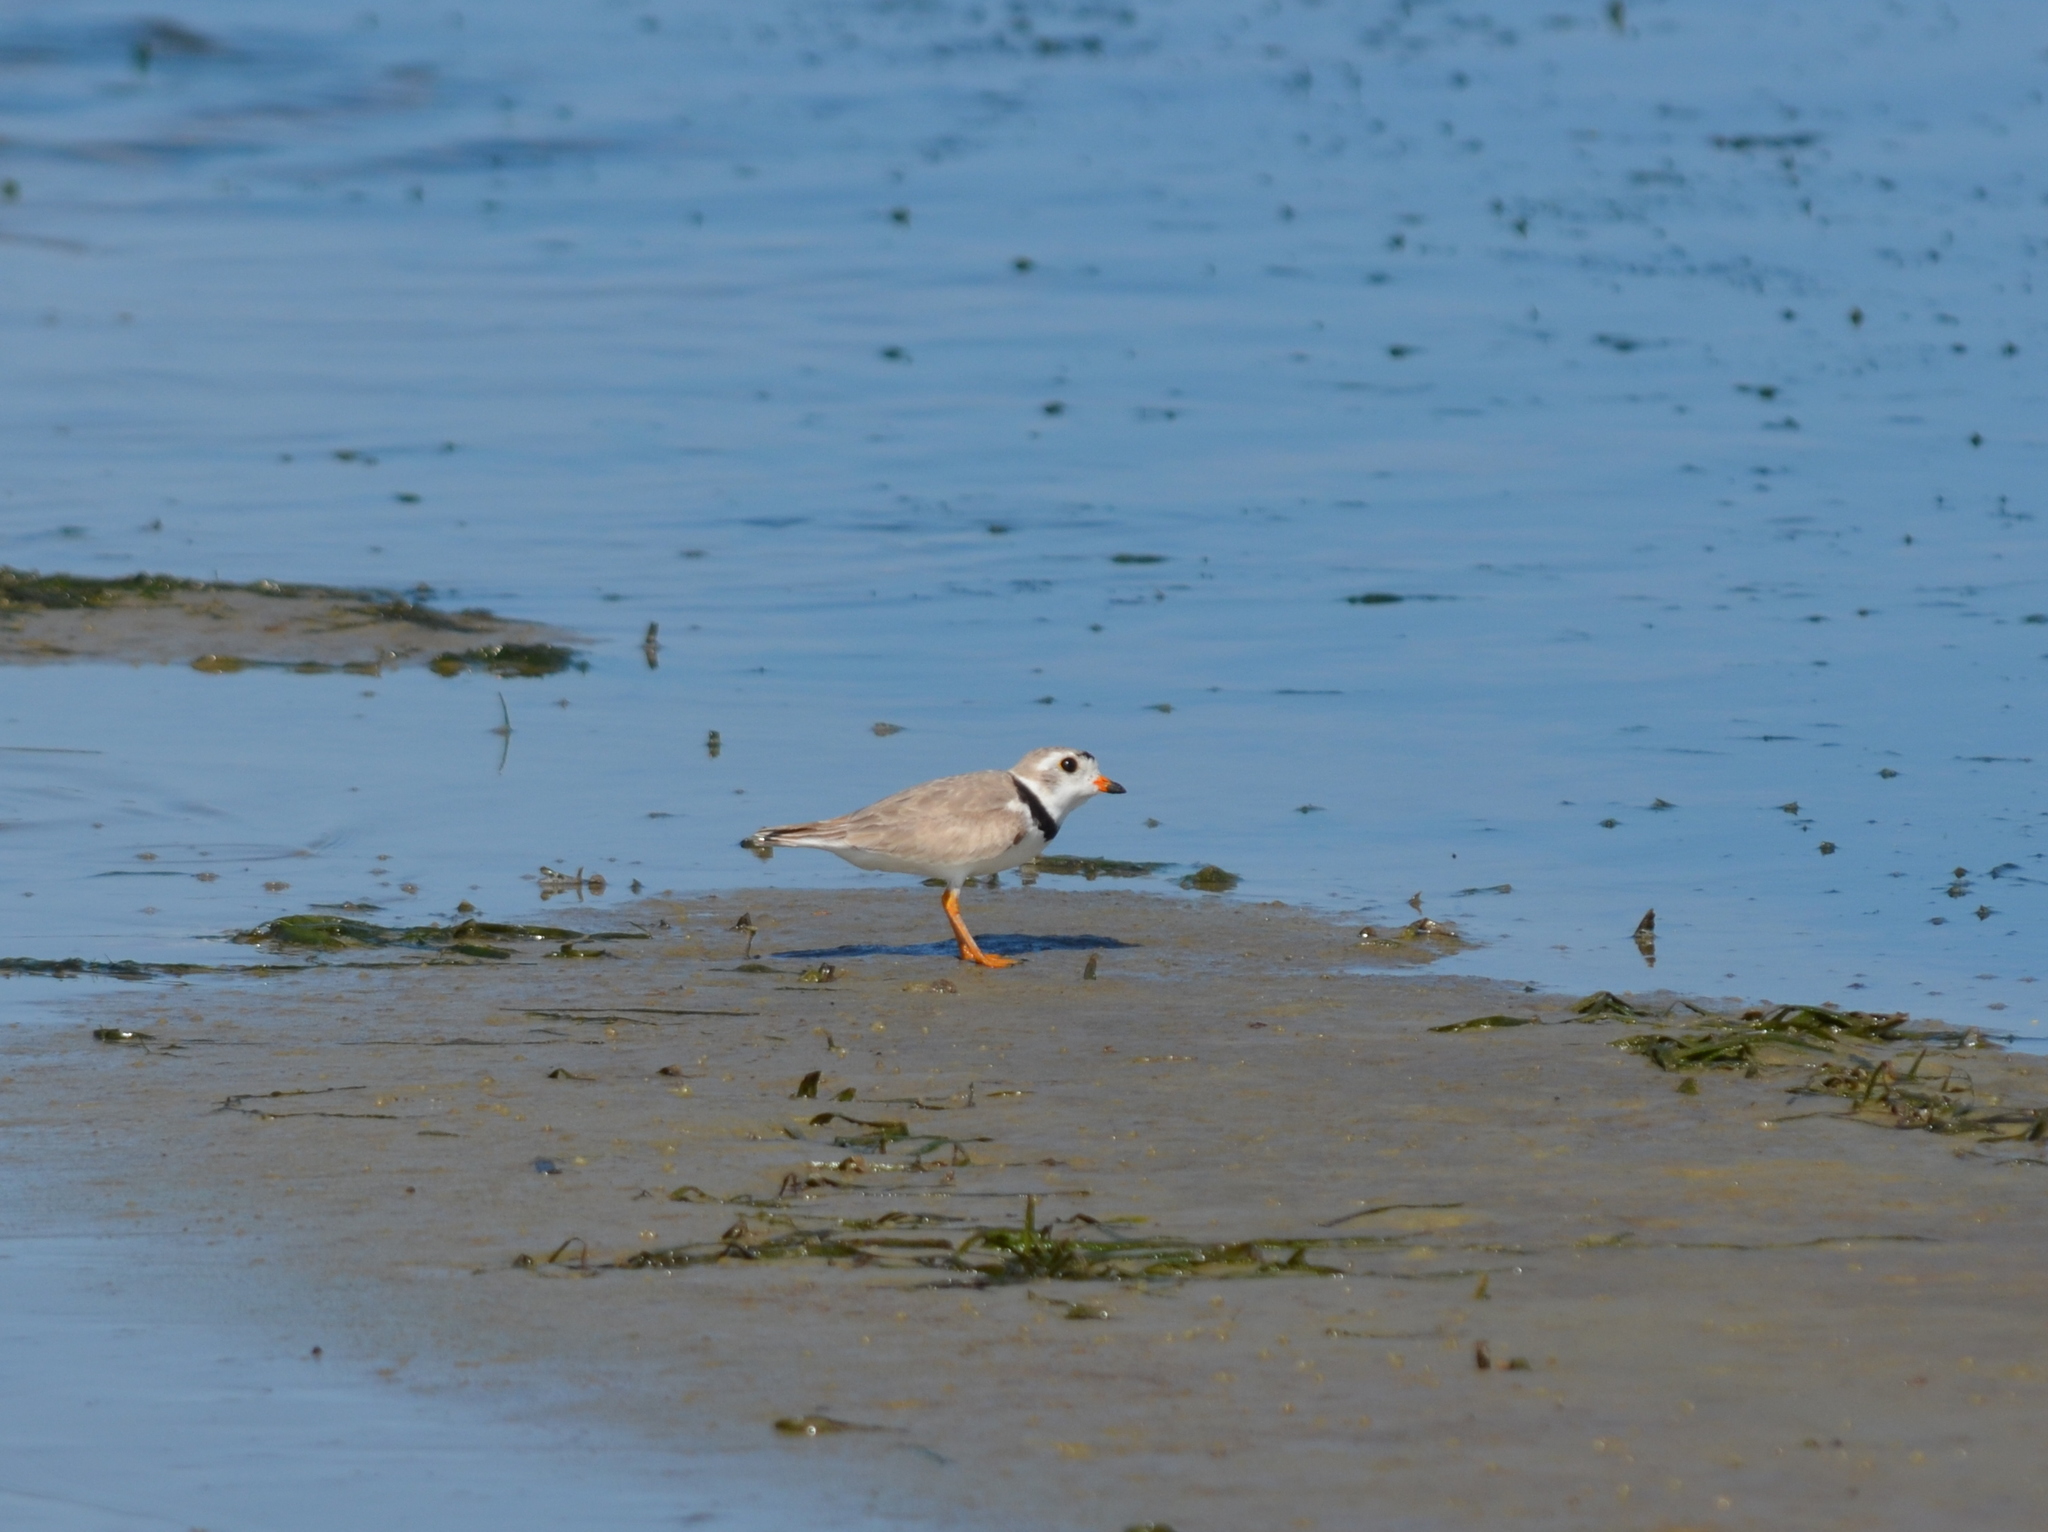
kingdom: Animalia
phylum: Chordata
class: Aves
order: Charadriiformes
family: Charadriidae
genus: Charadrius
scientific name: Charadrius melodus
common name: Piping plover
